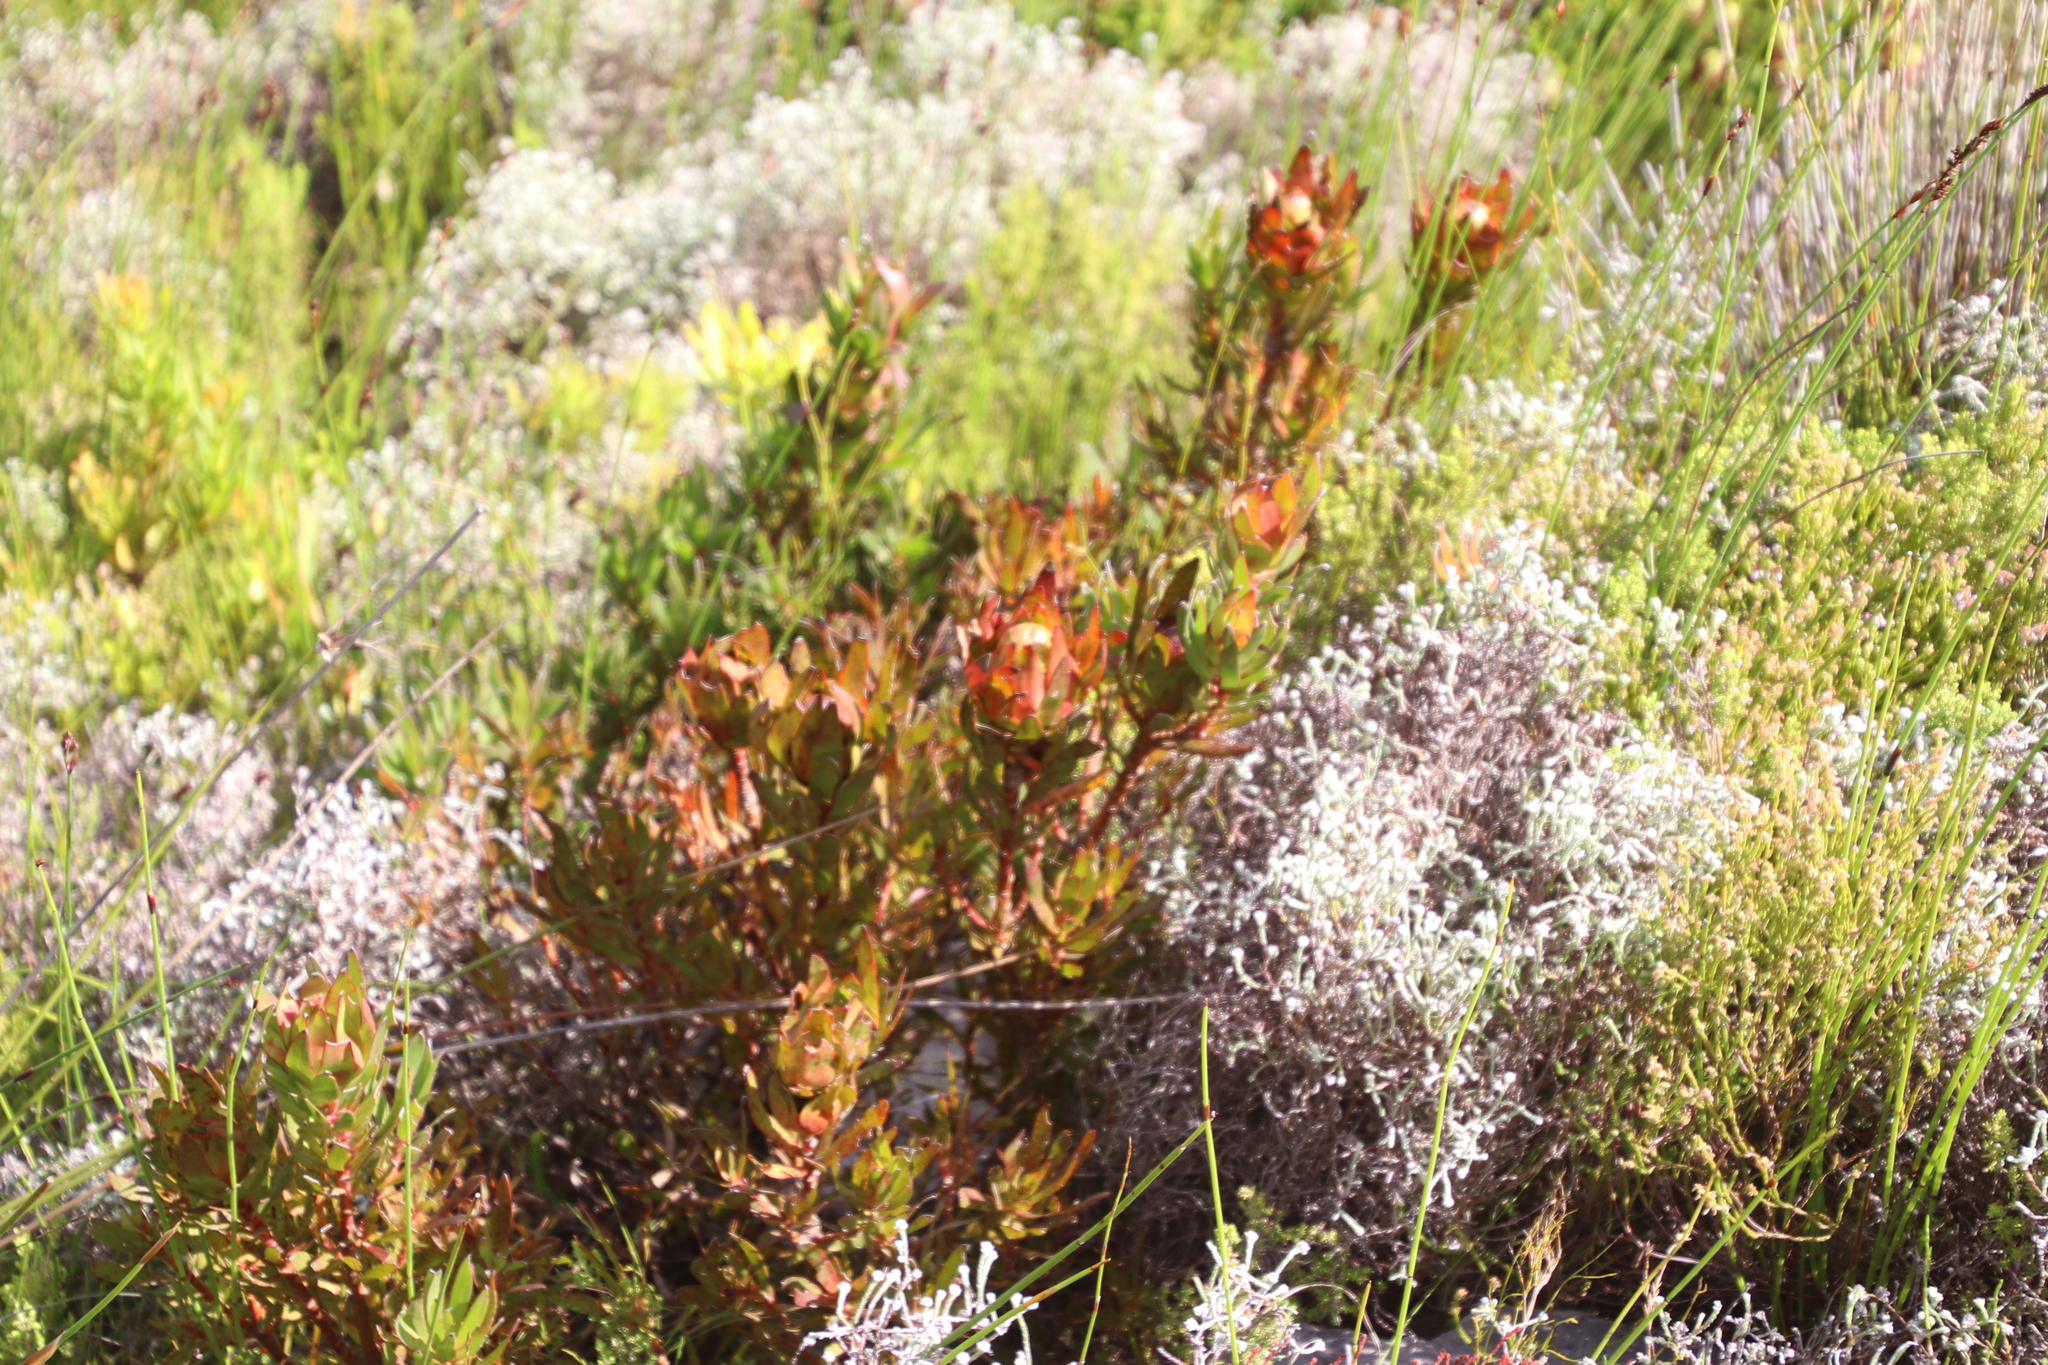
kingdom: Plantae
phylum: Tracheophyta
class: Magnoliopsida
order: Proteales
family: Proteaceae
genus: Leucadendron
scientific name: Leucadendron spissifolium
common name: Spear-leaf conebush
